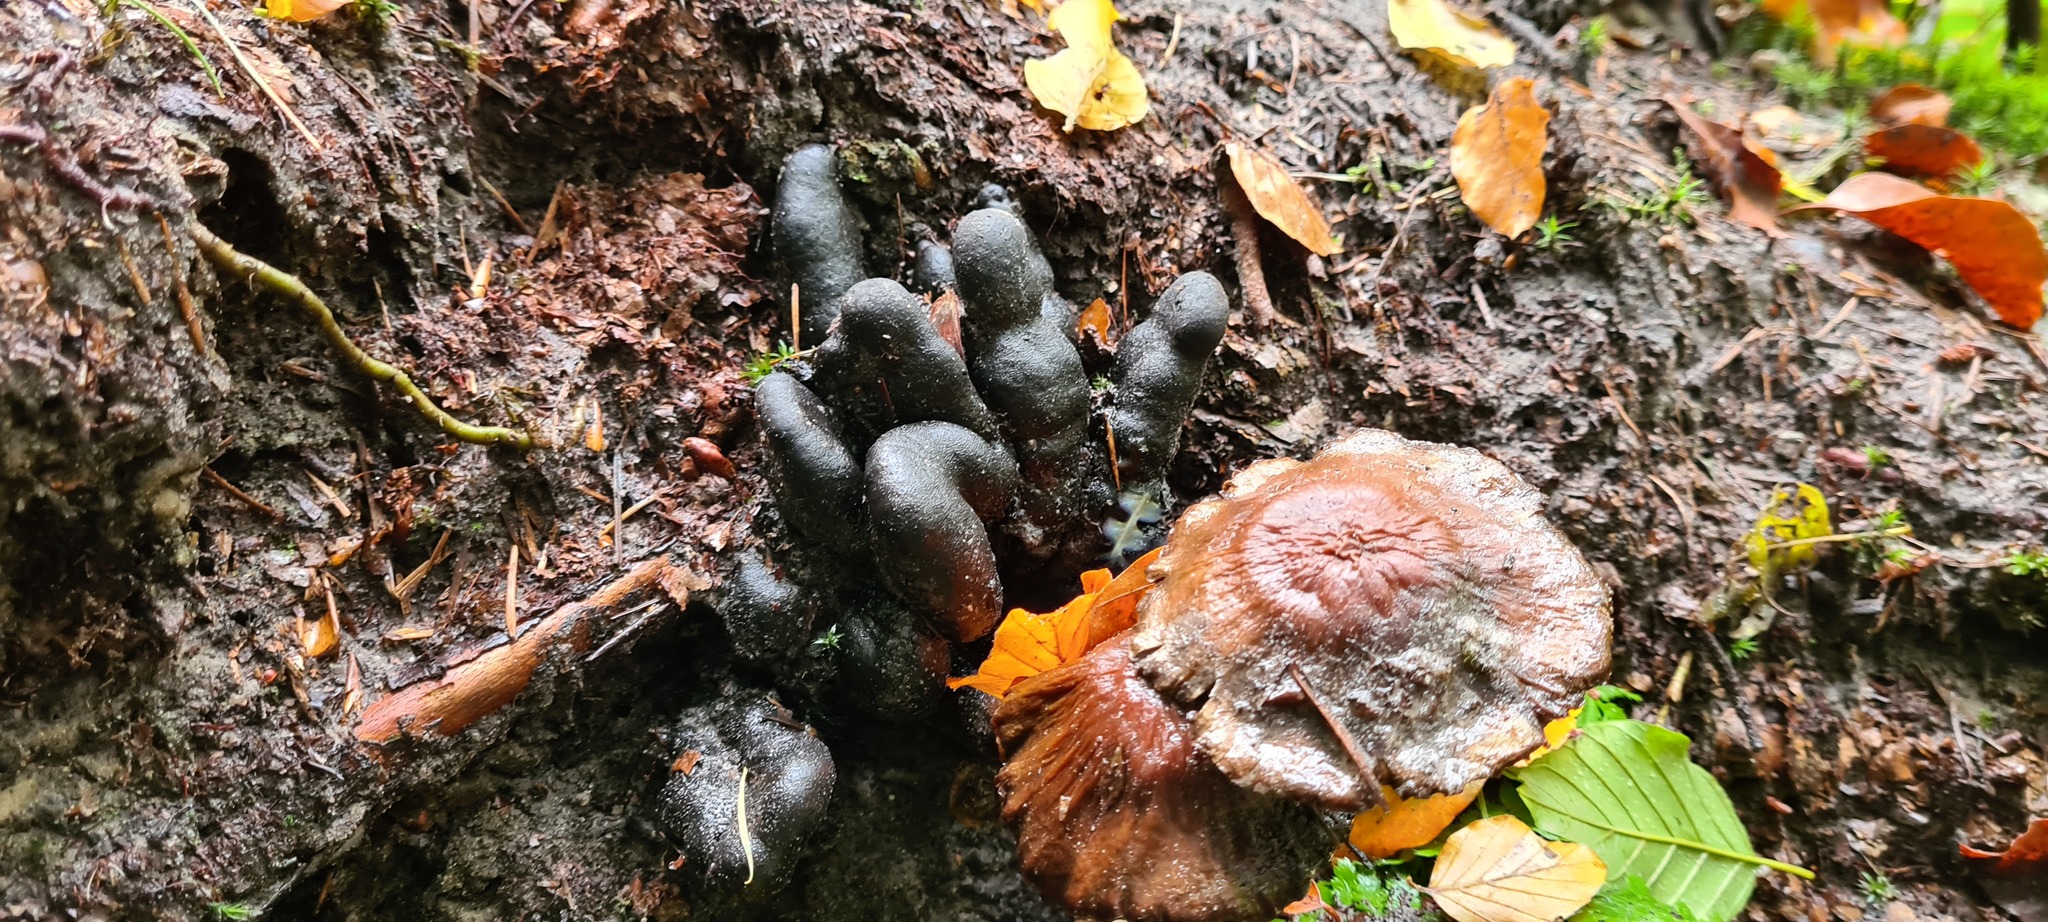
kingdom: Fungi
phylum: Ascomycota
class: Sordariomycetes
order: Xylariales
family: Xylariaceae
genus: Xylaria
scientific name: Xylaria polymorpha
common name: Dead man's fingers
